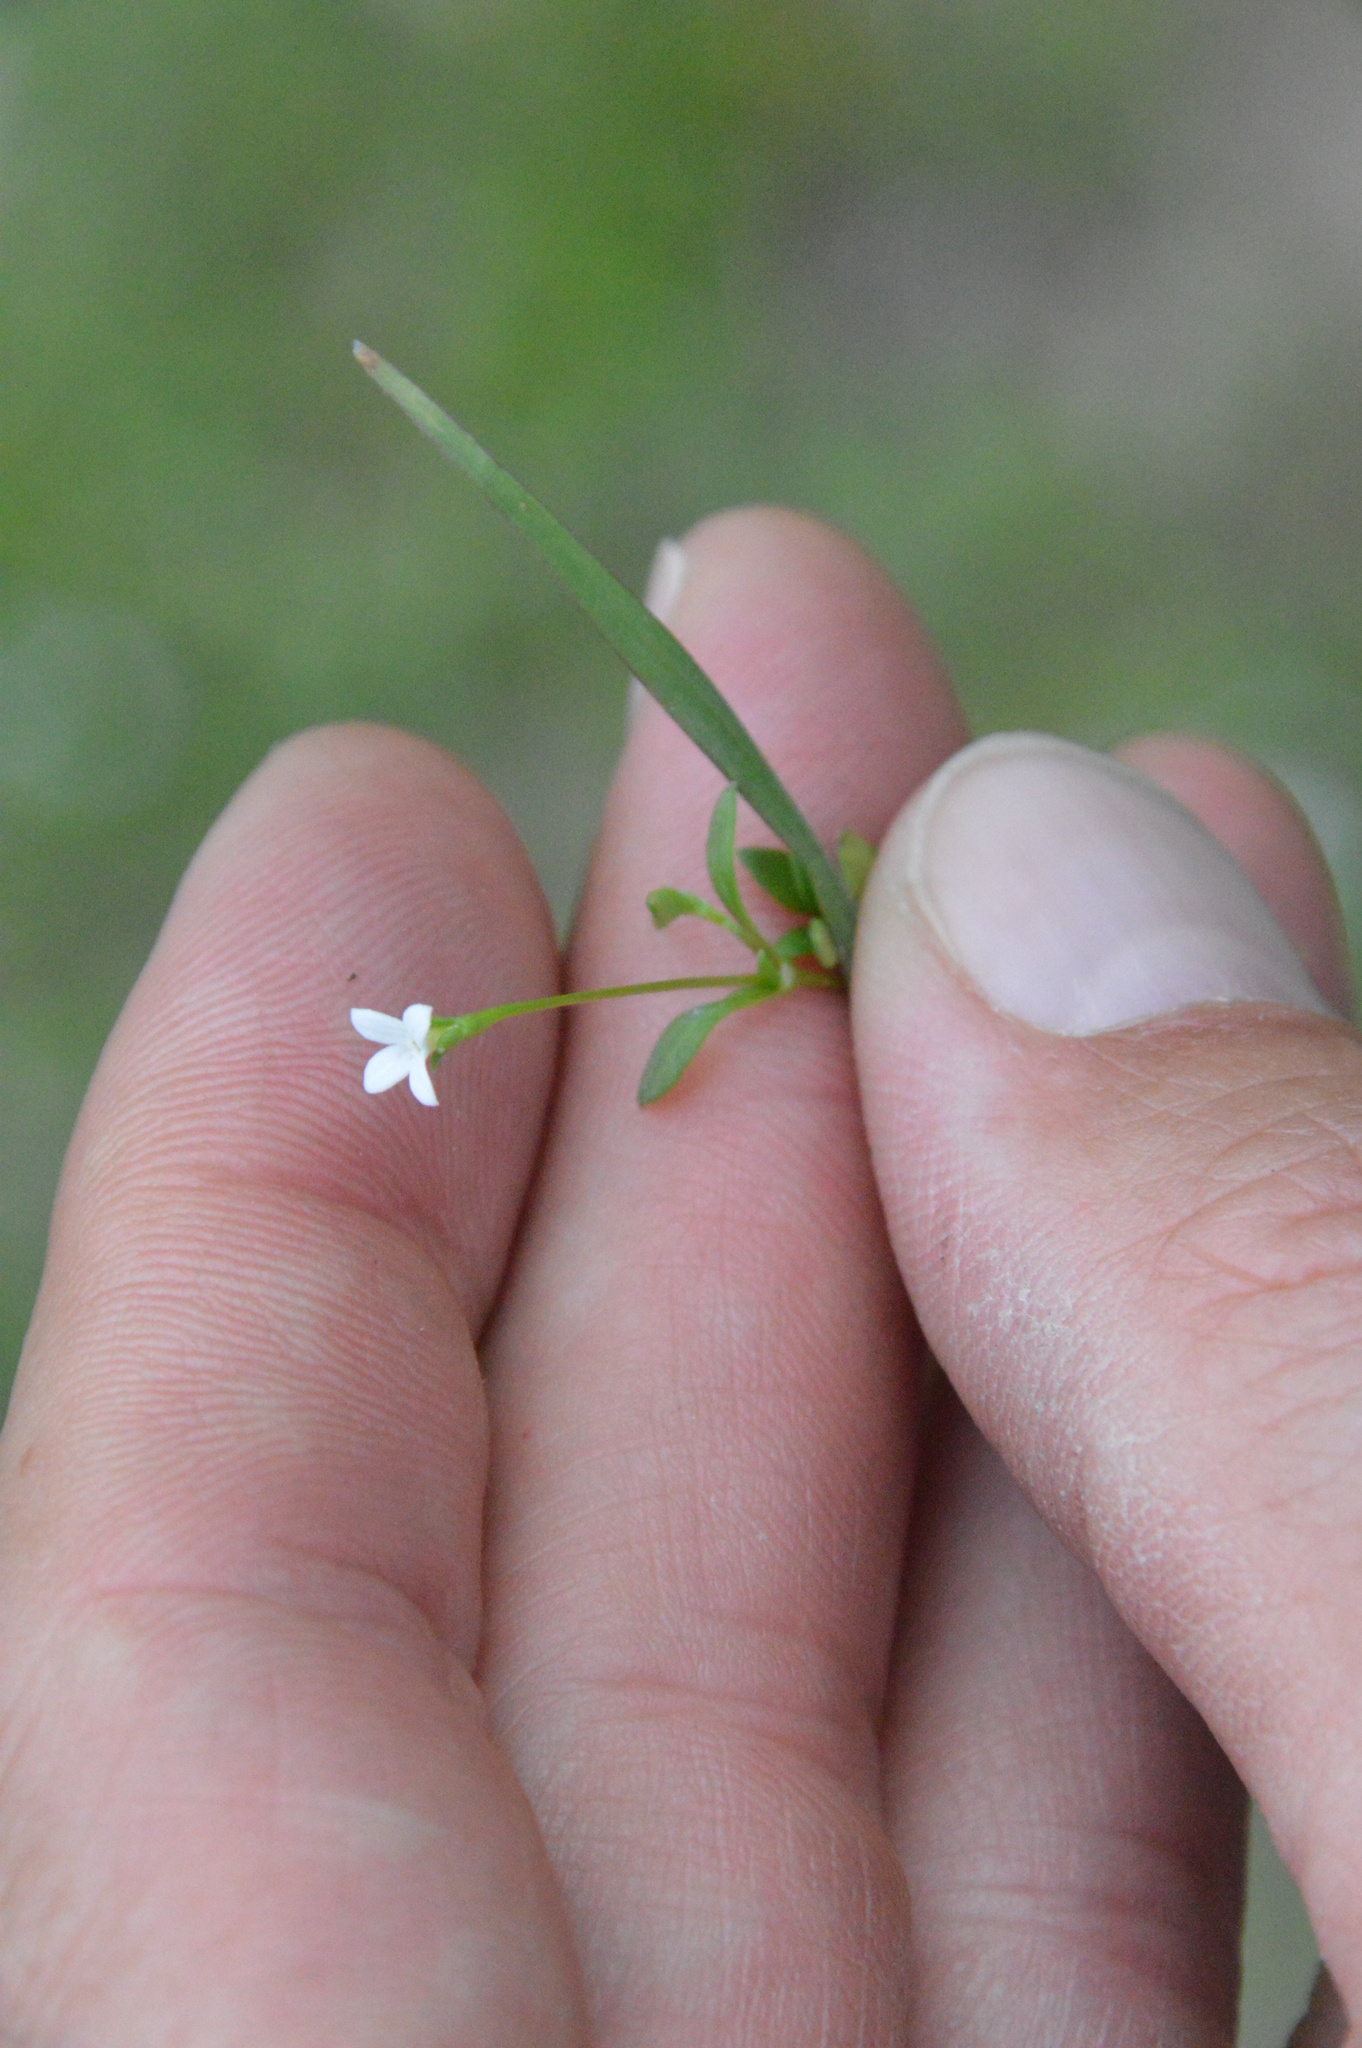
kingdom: Plantae
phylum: Tracheophyta
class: Magnoliopsida
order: Gentianales
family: Rubiaceae
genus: Houstonia
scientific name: Houstonia micrantha
